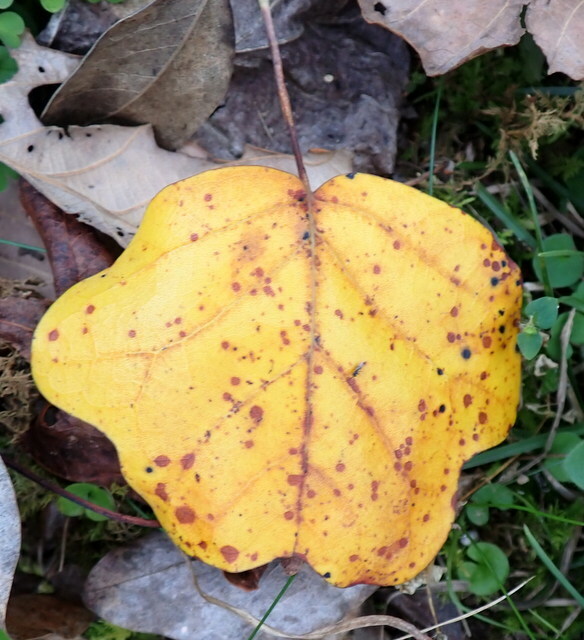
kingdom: Plantae
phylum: Tracheophyta
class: Magnoliopsida
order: Magnoliales
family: Magnoliaceae
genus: Liriodendron
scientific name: Liriodendron tulipifera
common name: Tulip tree
